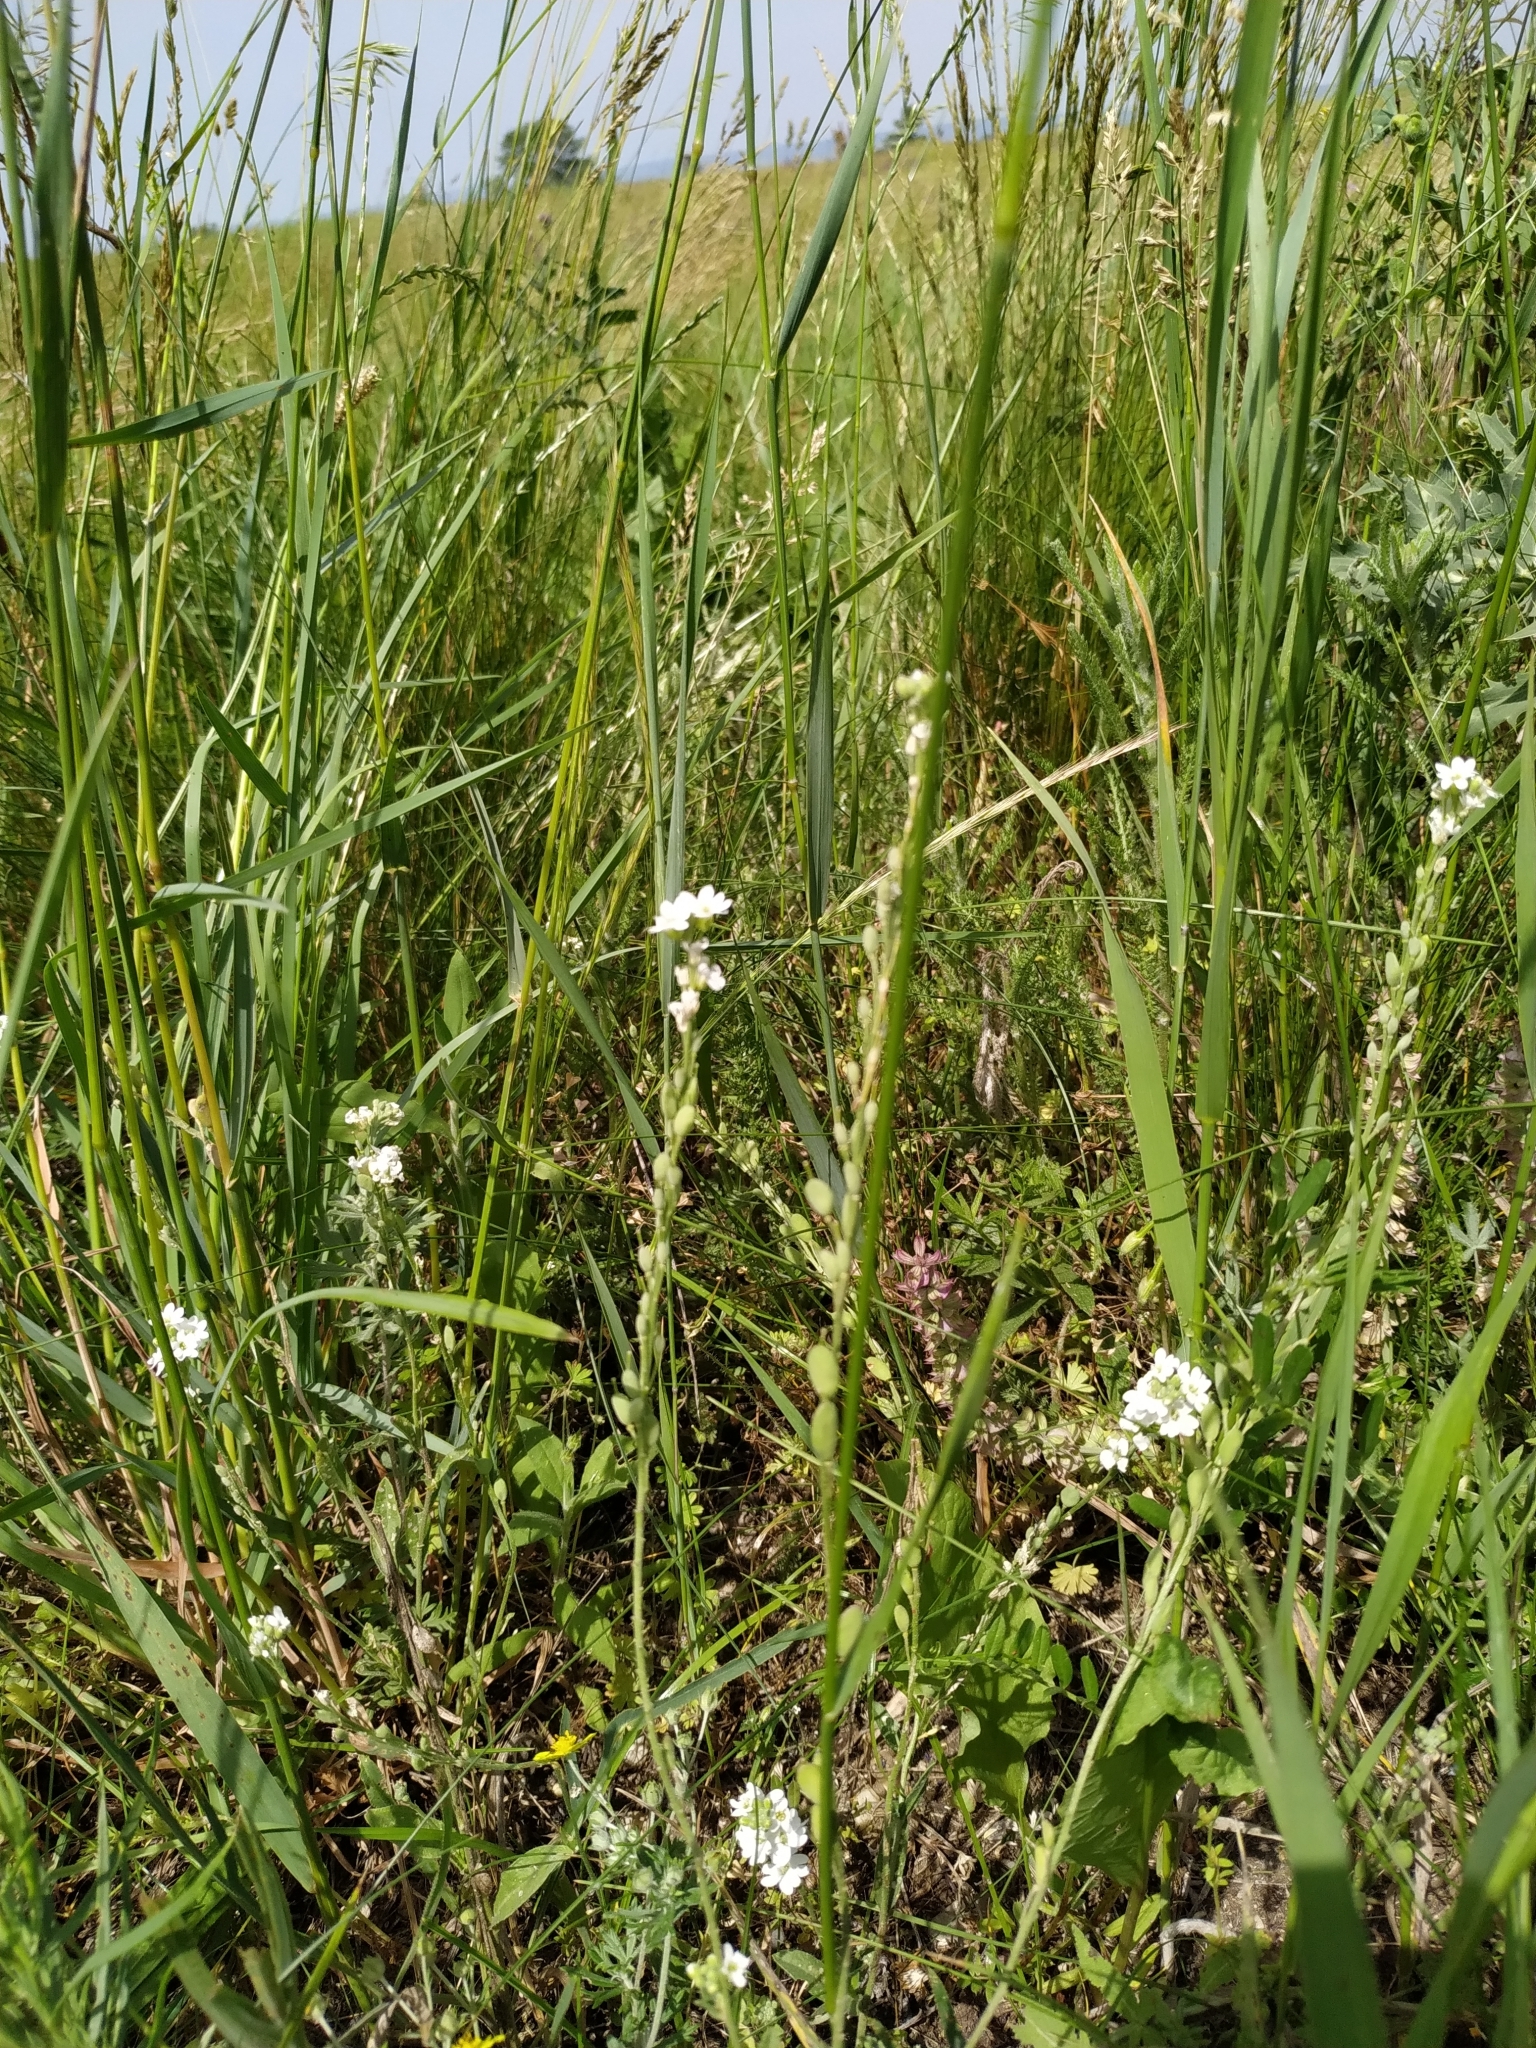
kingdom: Plantae
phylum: Tracheophyta
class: Magnoliopsida
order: Brassicales
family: Brassicaceae
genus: Berteroa
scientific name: Berteroa incana
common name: Hoary alison
